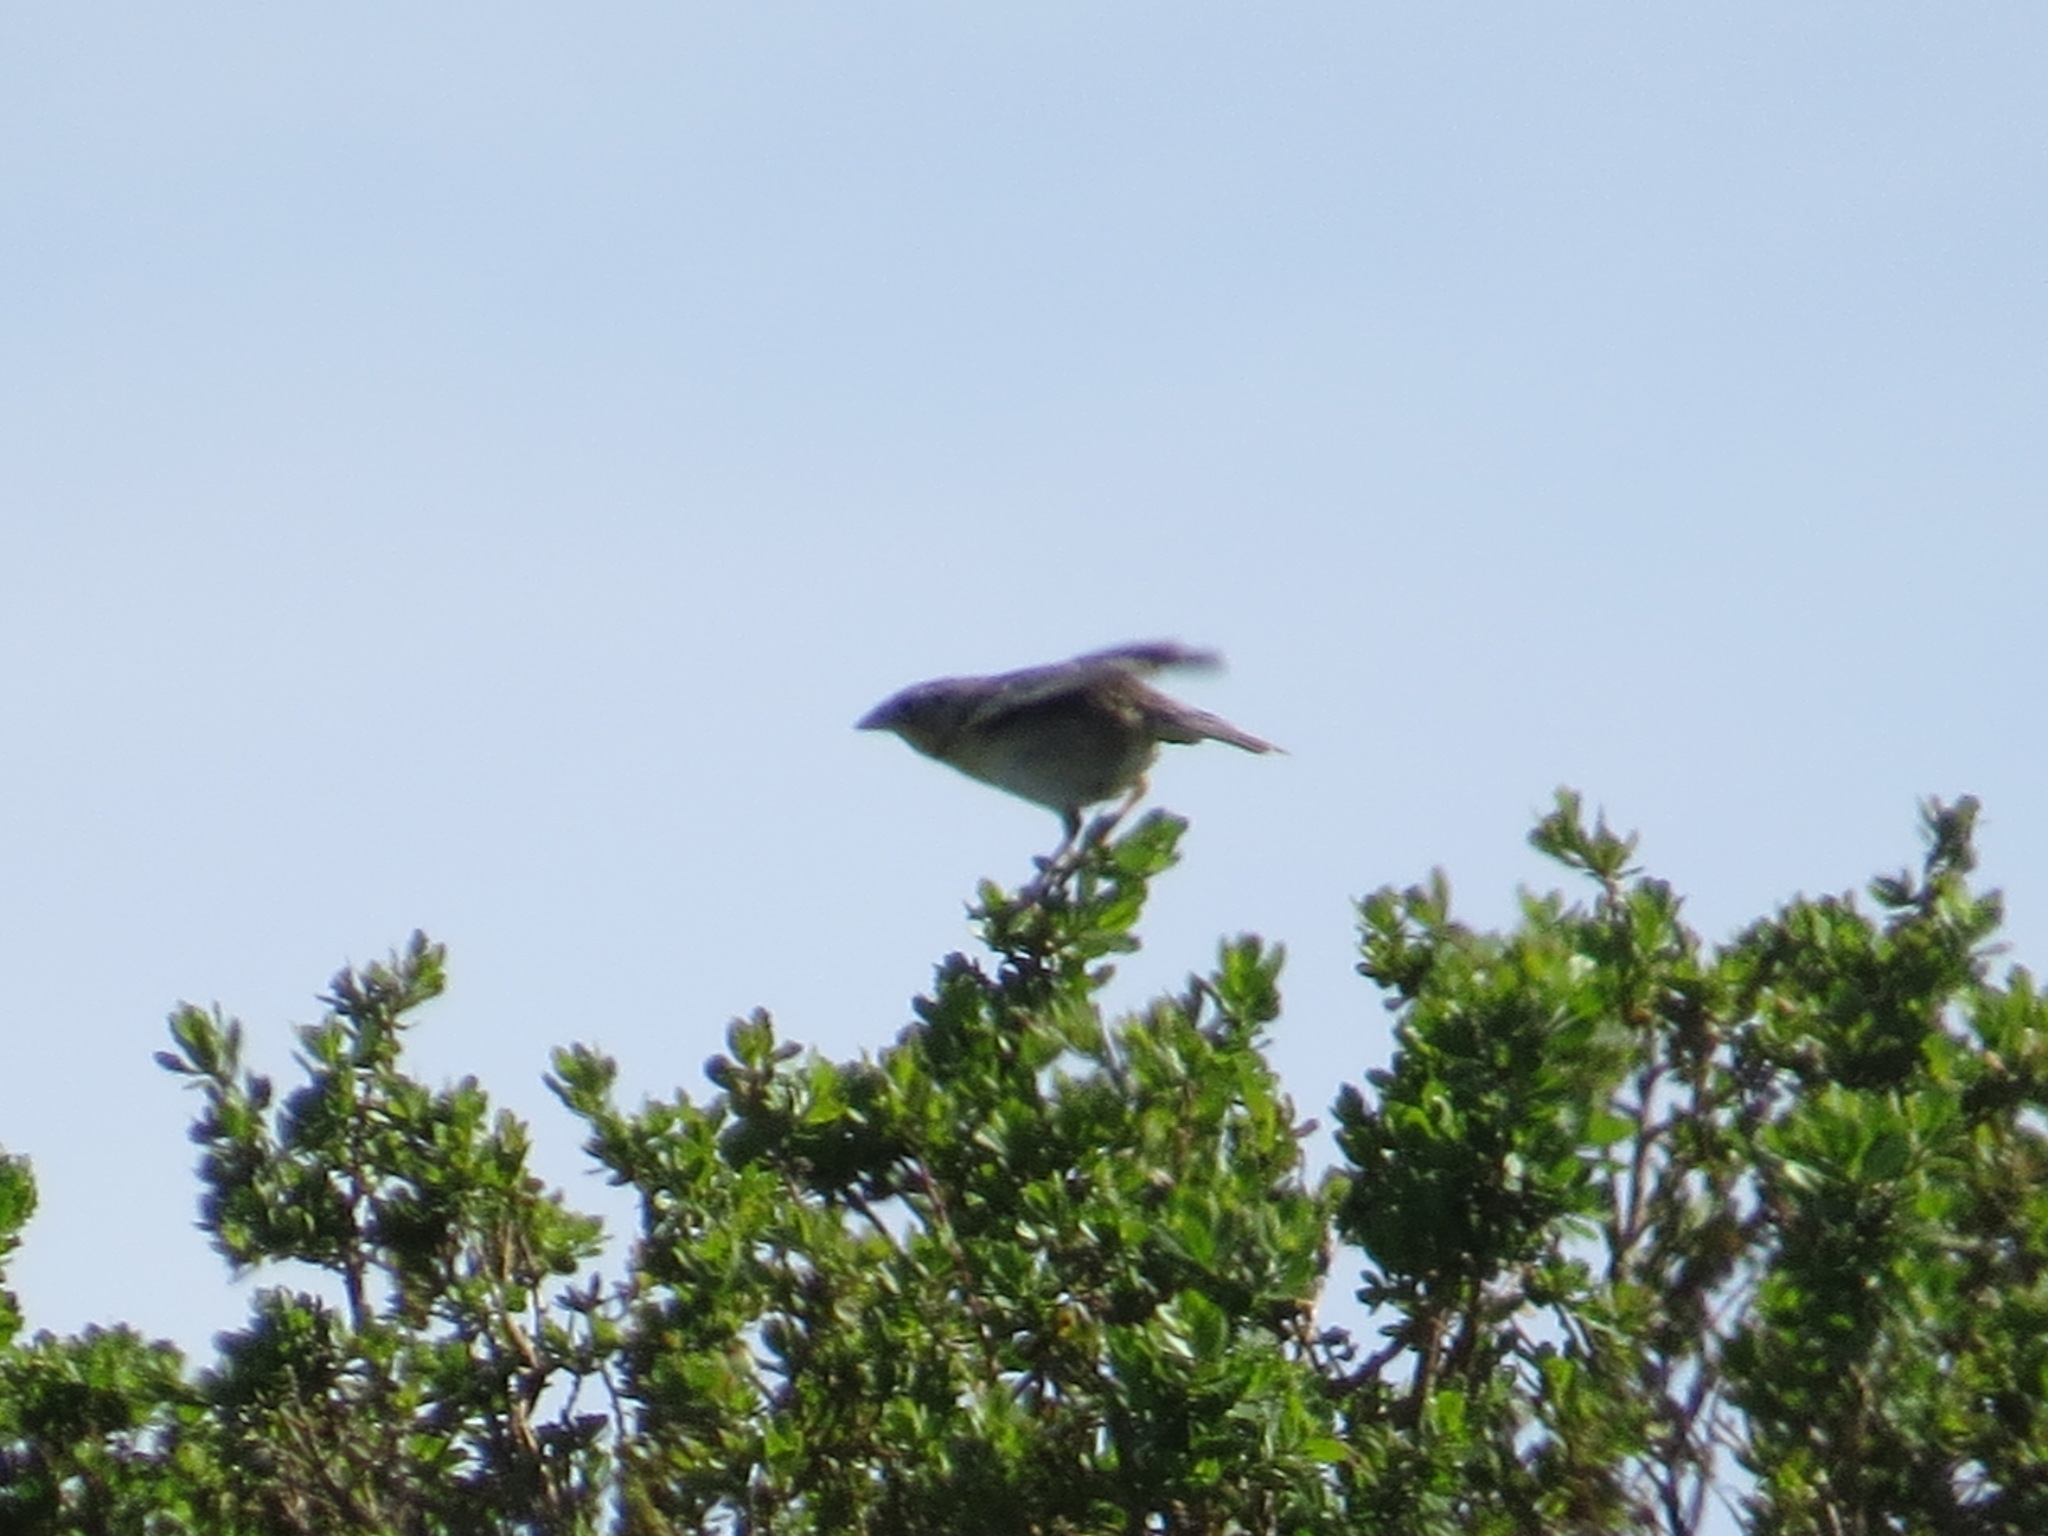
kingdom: Animalia
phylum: Chordata
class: Aves
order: Passeriformes
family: Passerellidae
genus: Ammodramus
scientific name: Ammodramus savannarum
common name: Grasshopper sparrow
